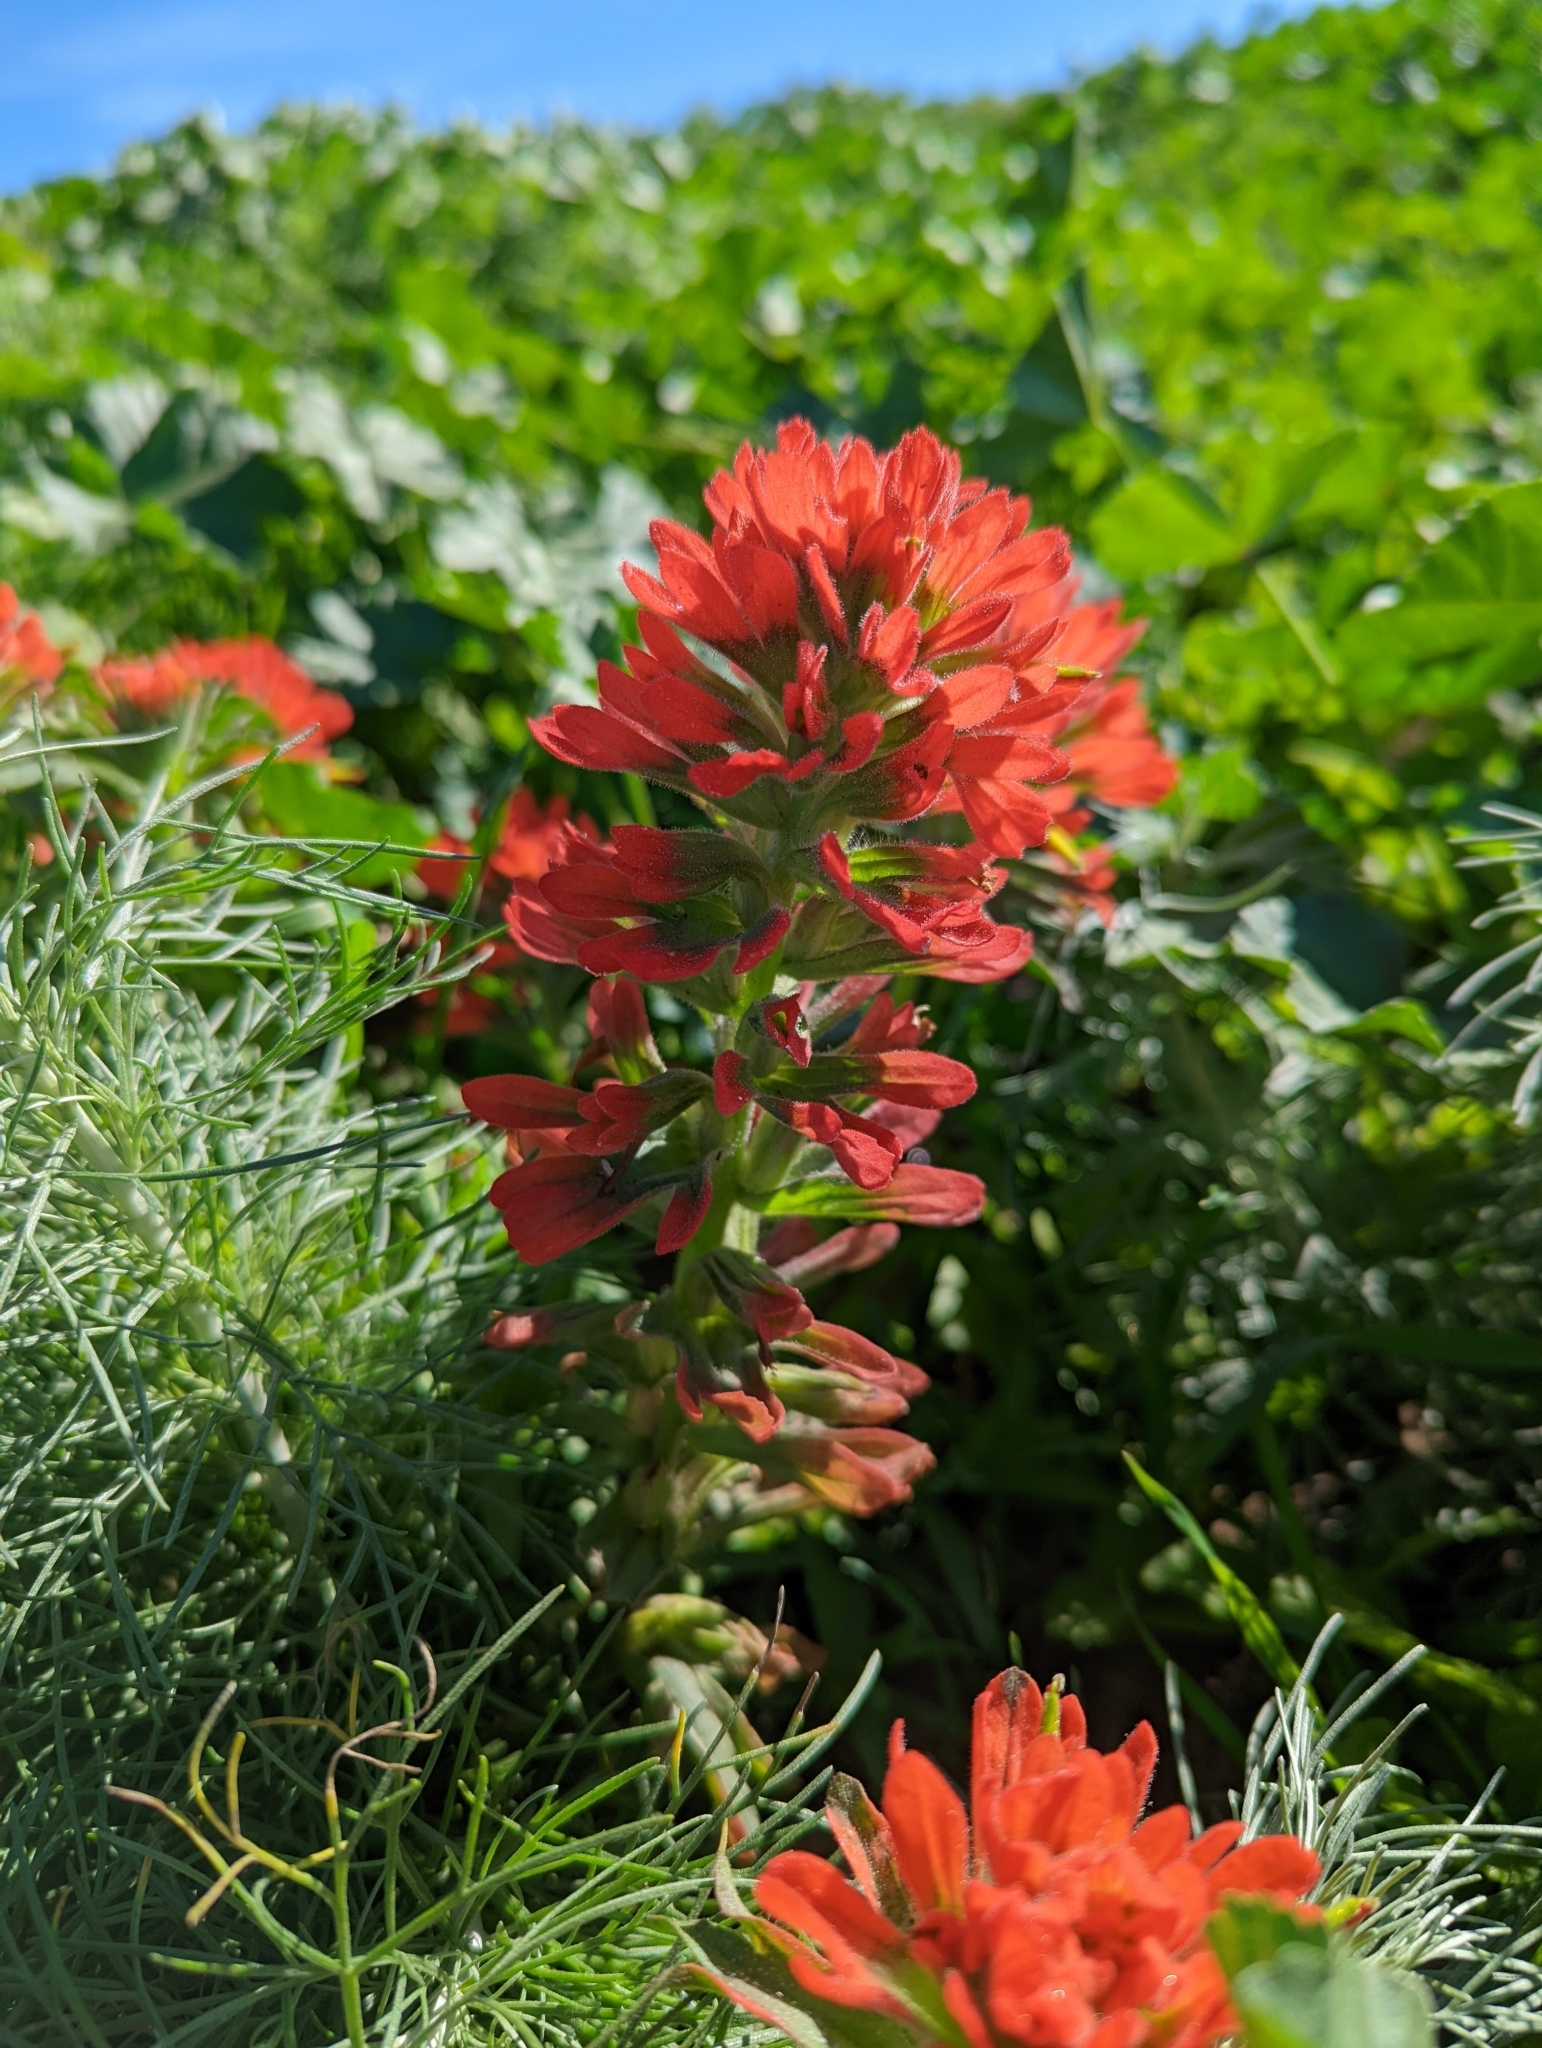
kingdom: Plantae
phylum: Tracheophyta
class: Magnoliopsida
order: Lamiales
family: Orobanchaceae
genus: Castilleja
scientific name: Castilleja affinis
